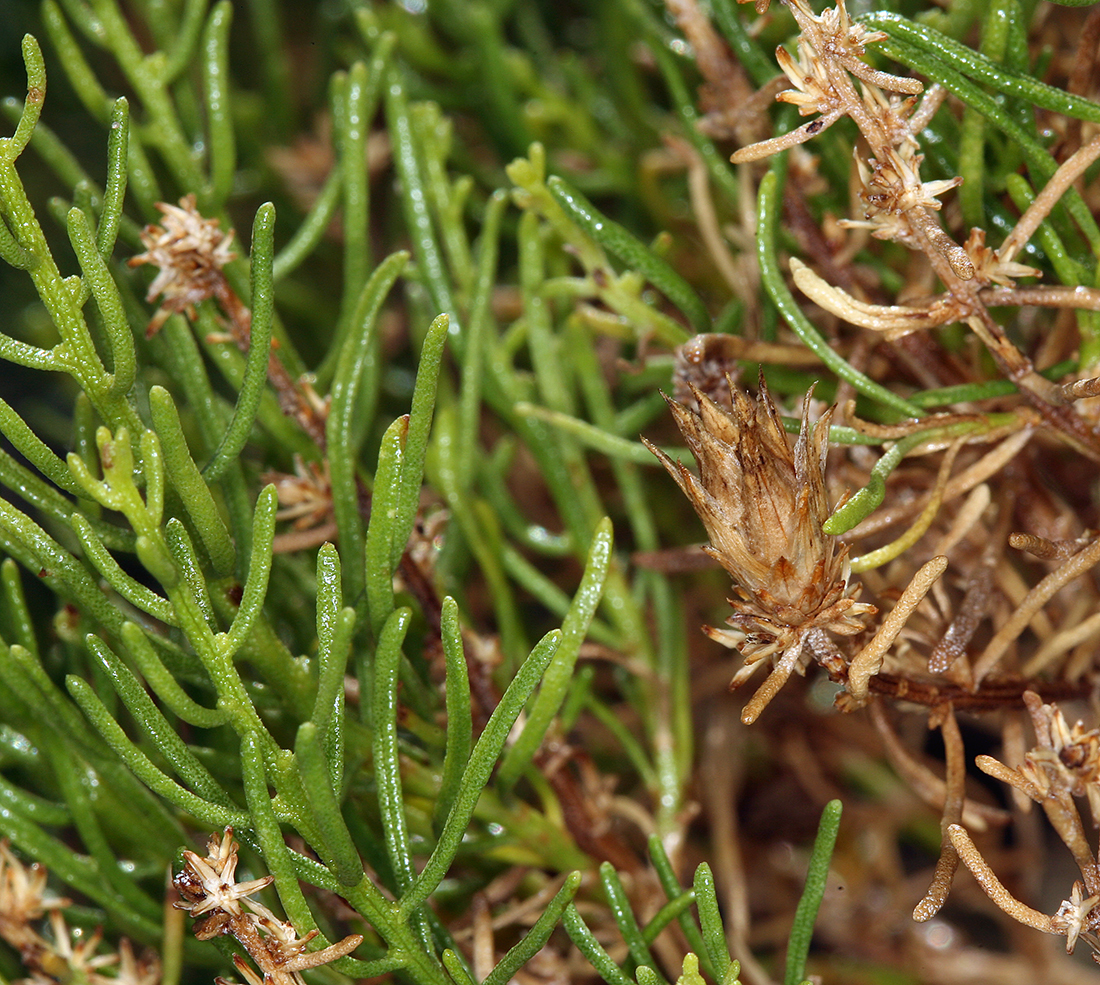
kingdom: Plantae
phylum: Tracheophyta
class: Magnoliopsida
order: Asterales
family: Asteraceae
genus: Ericameria
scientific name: Ericameria teretifolia
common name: Round-leaf rabbitbrush
